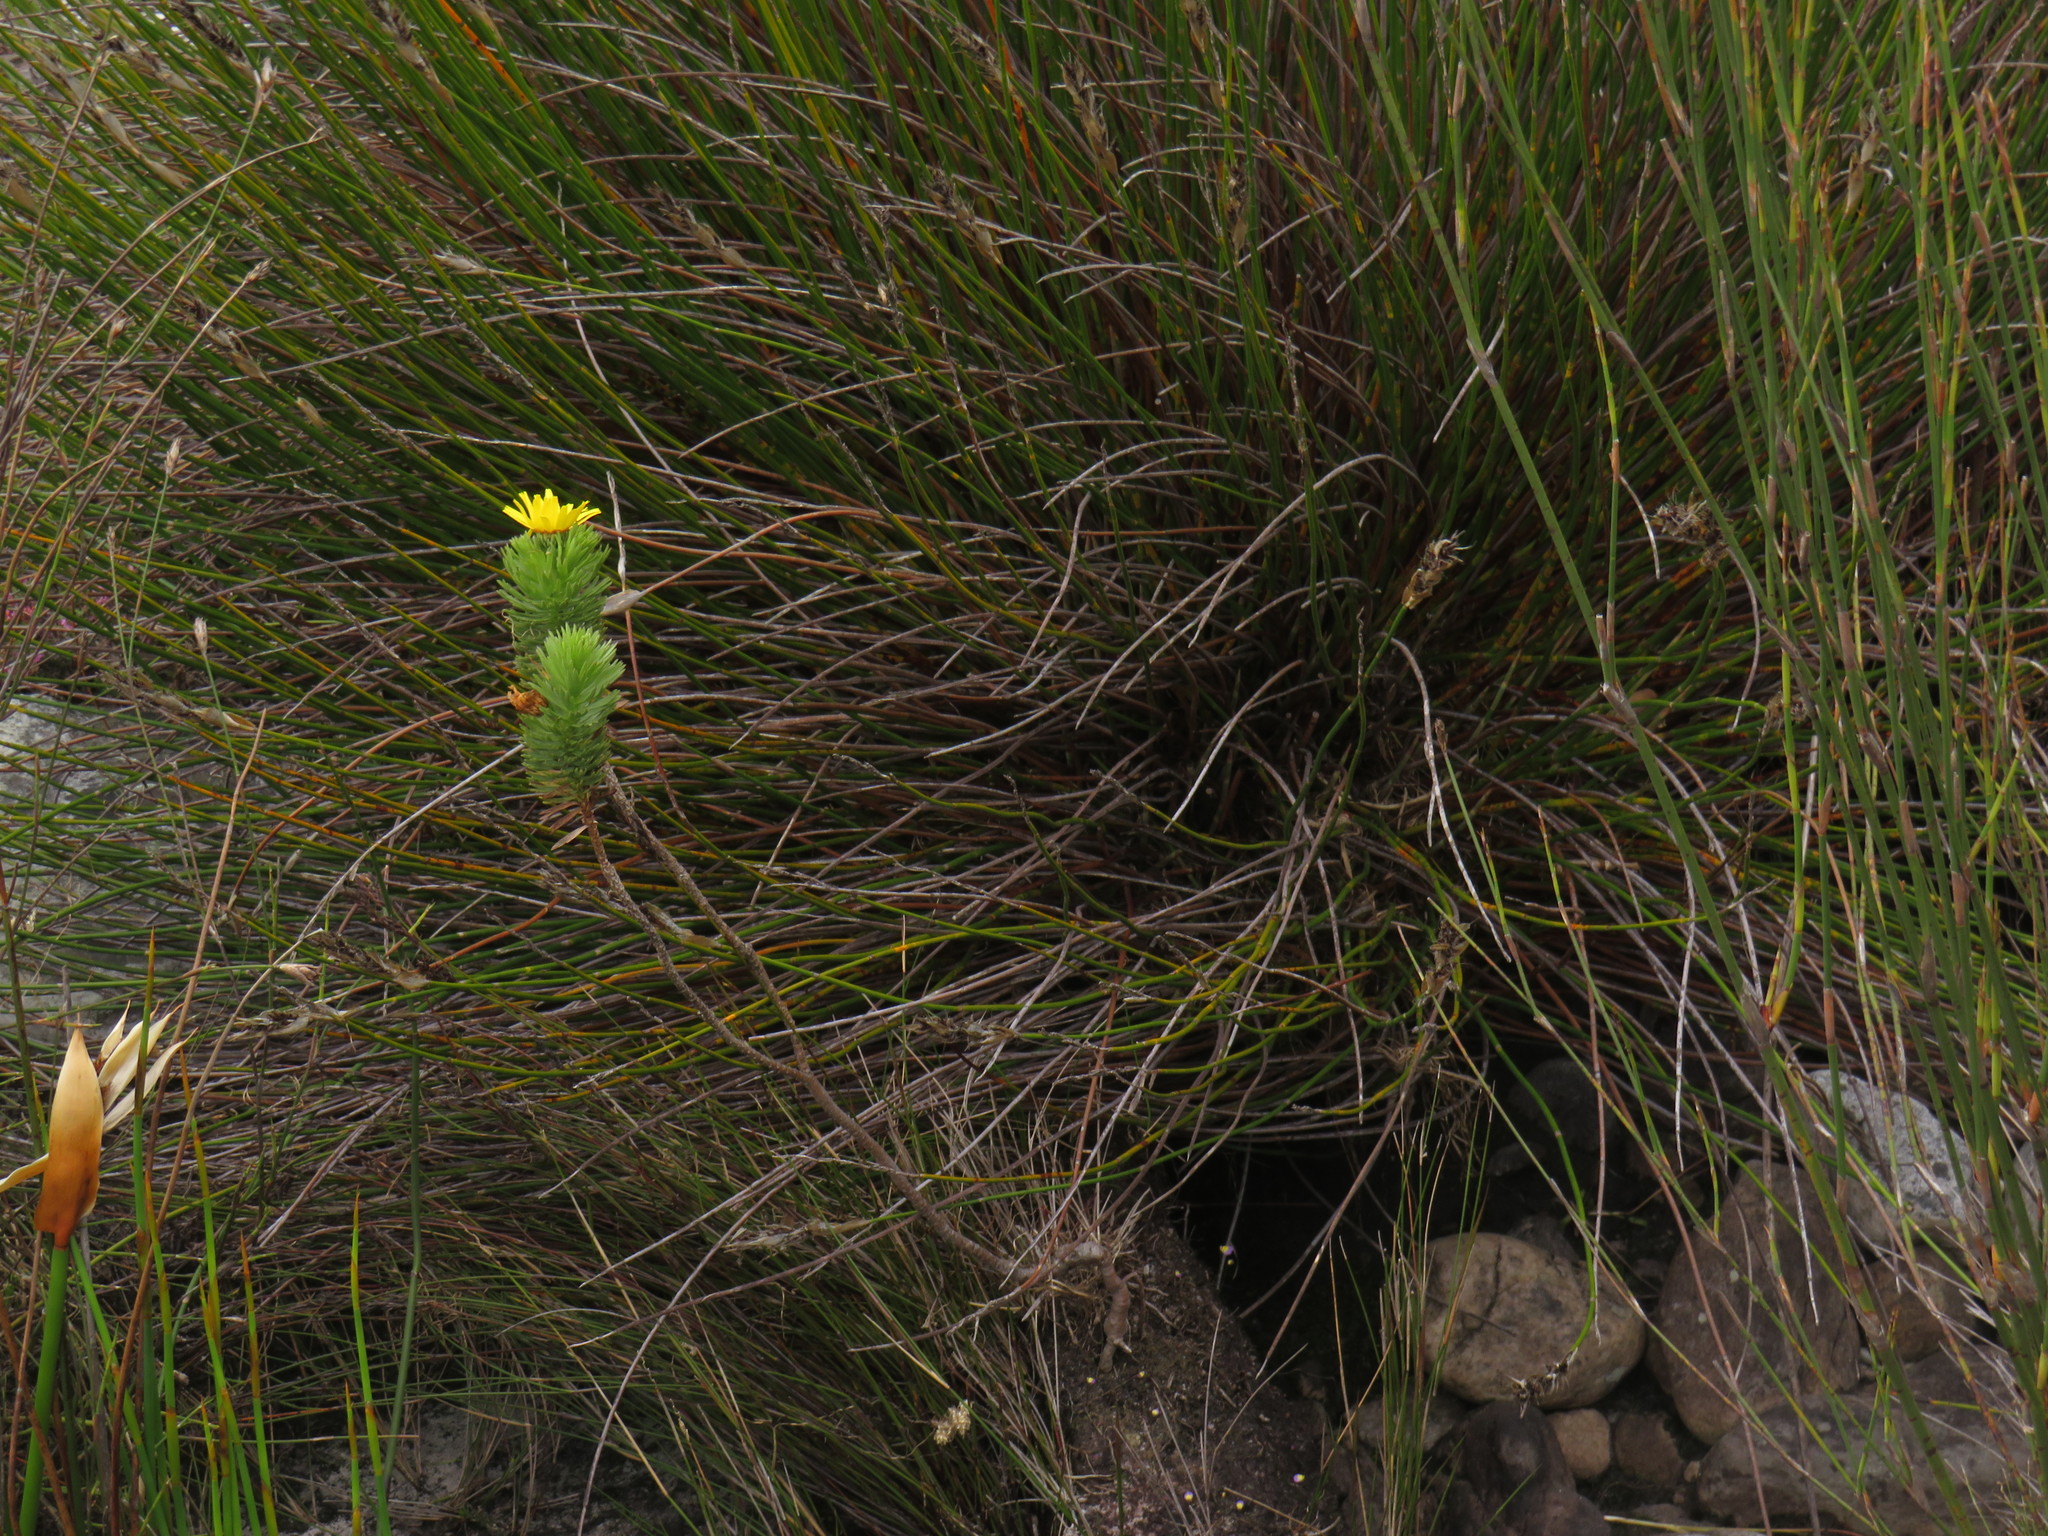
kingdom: Plantae
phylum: Tracheophyta
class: Magnoliopsida
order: Asterales
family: Asteraceae
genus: Ursinia
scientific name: Ursinia caledonica
